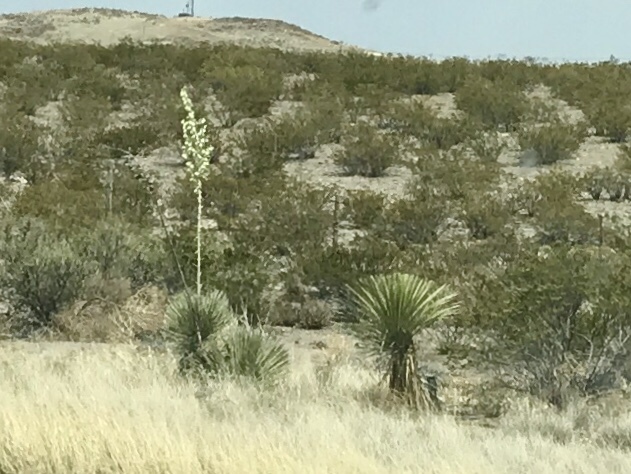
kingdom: Plantae
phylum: Tracheophyta
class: Liliopsida
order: Asparagales
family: Asparagaceae
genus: Yucca
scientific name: Yucca elata
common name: Palmella
